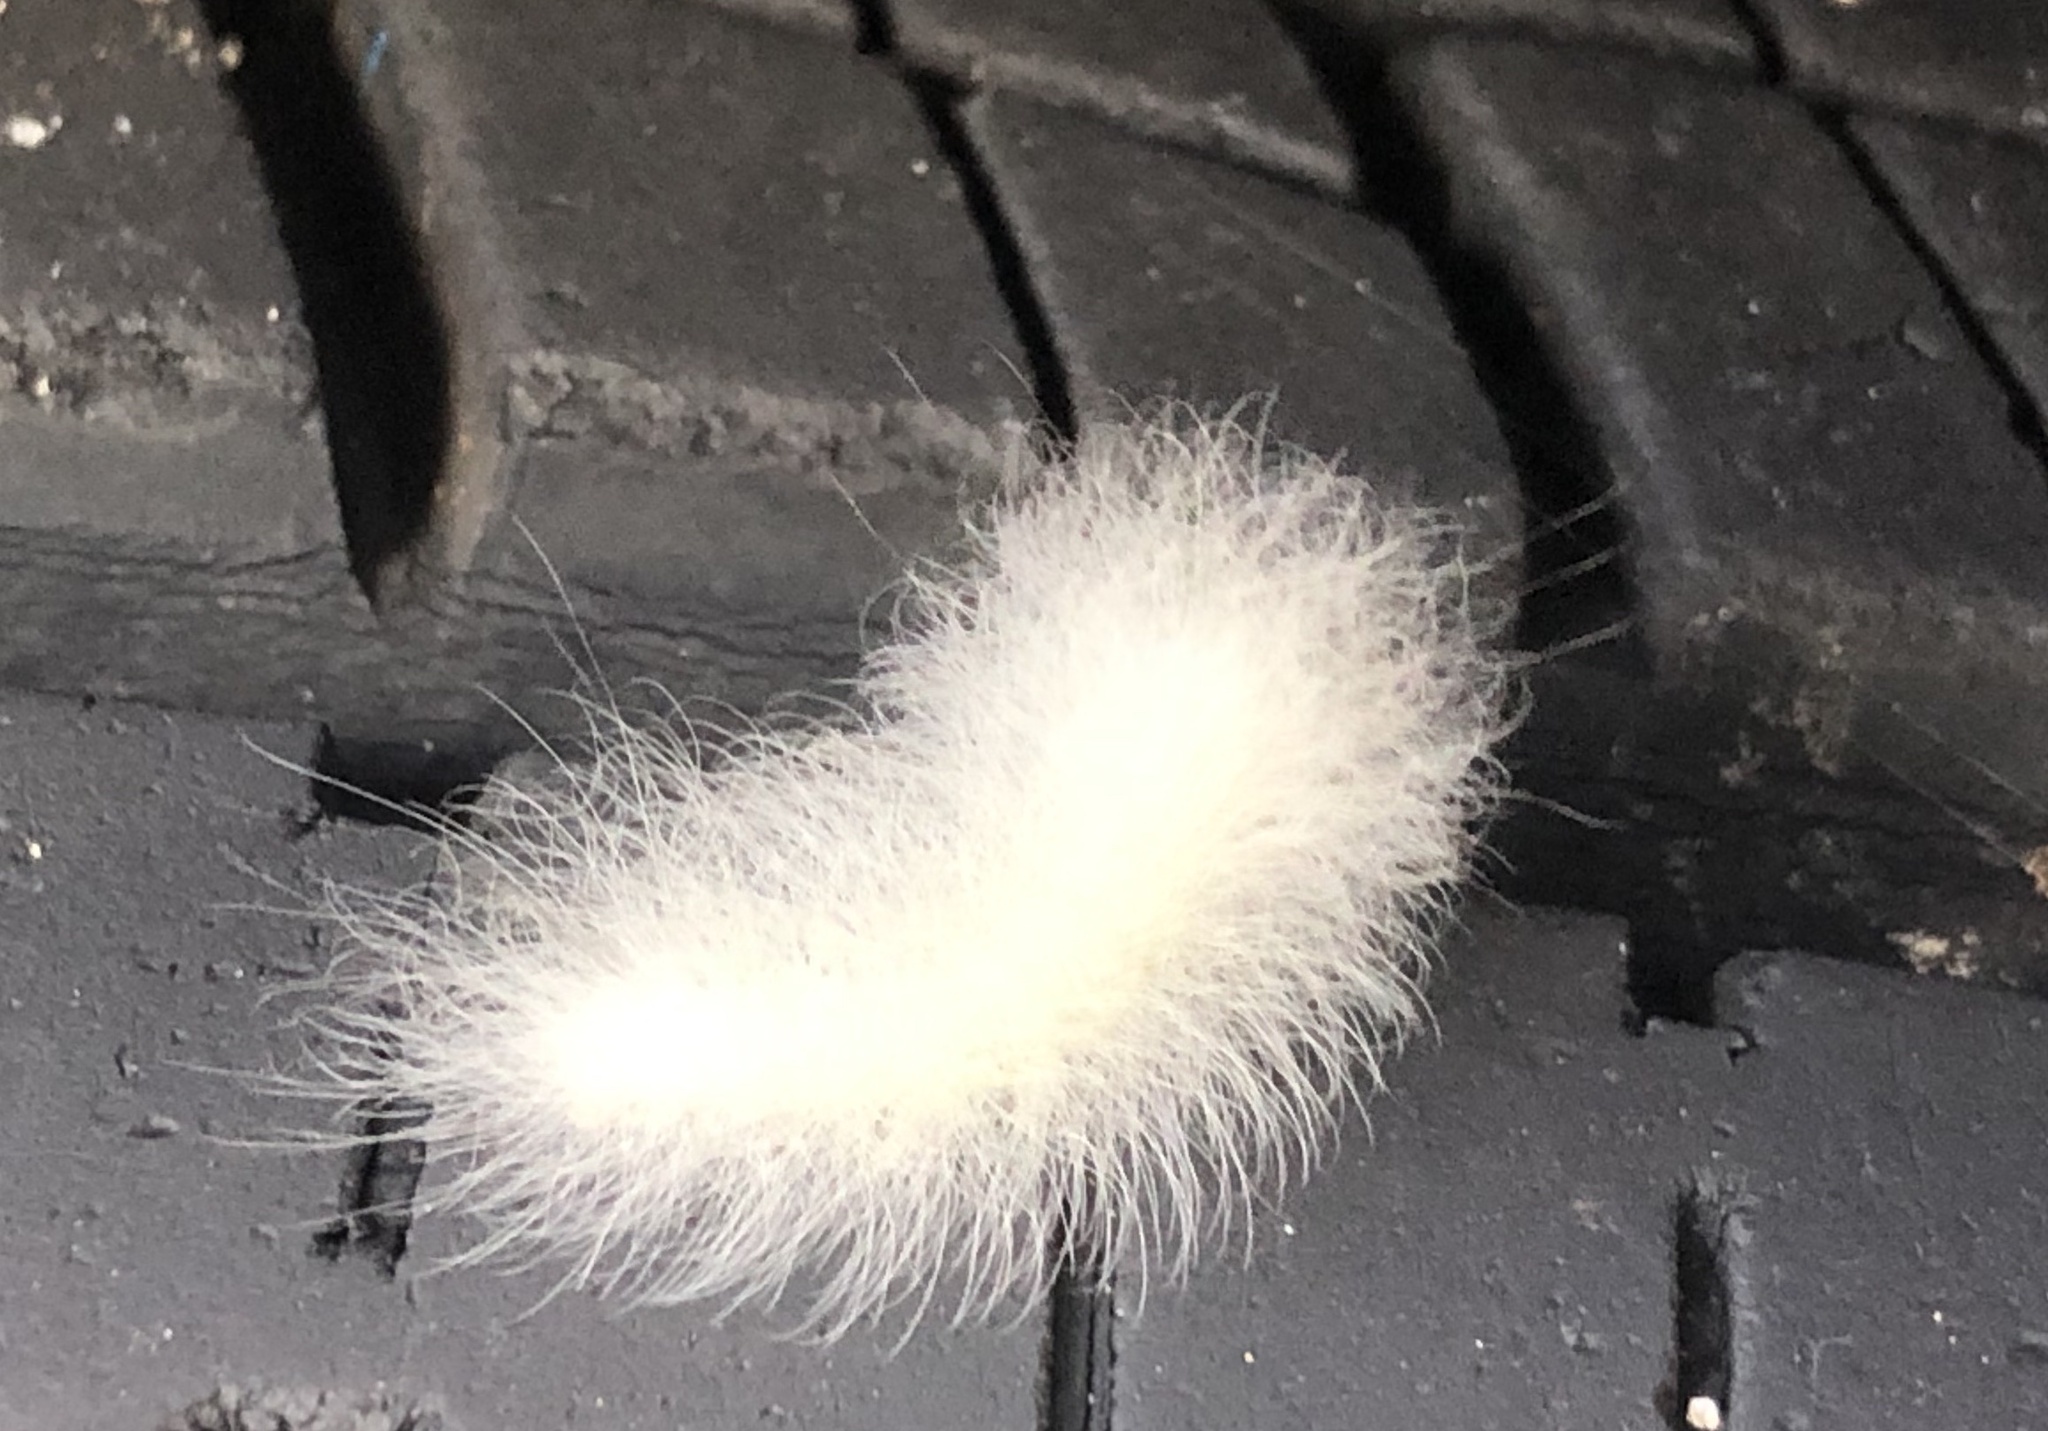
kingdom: Animalia
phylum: Arthropoda
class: Insecta
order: Lepidoptera
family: Apatelodidae
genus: Hygrochroa
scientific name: Hygrochroa Apatelodes torrefacta
